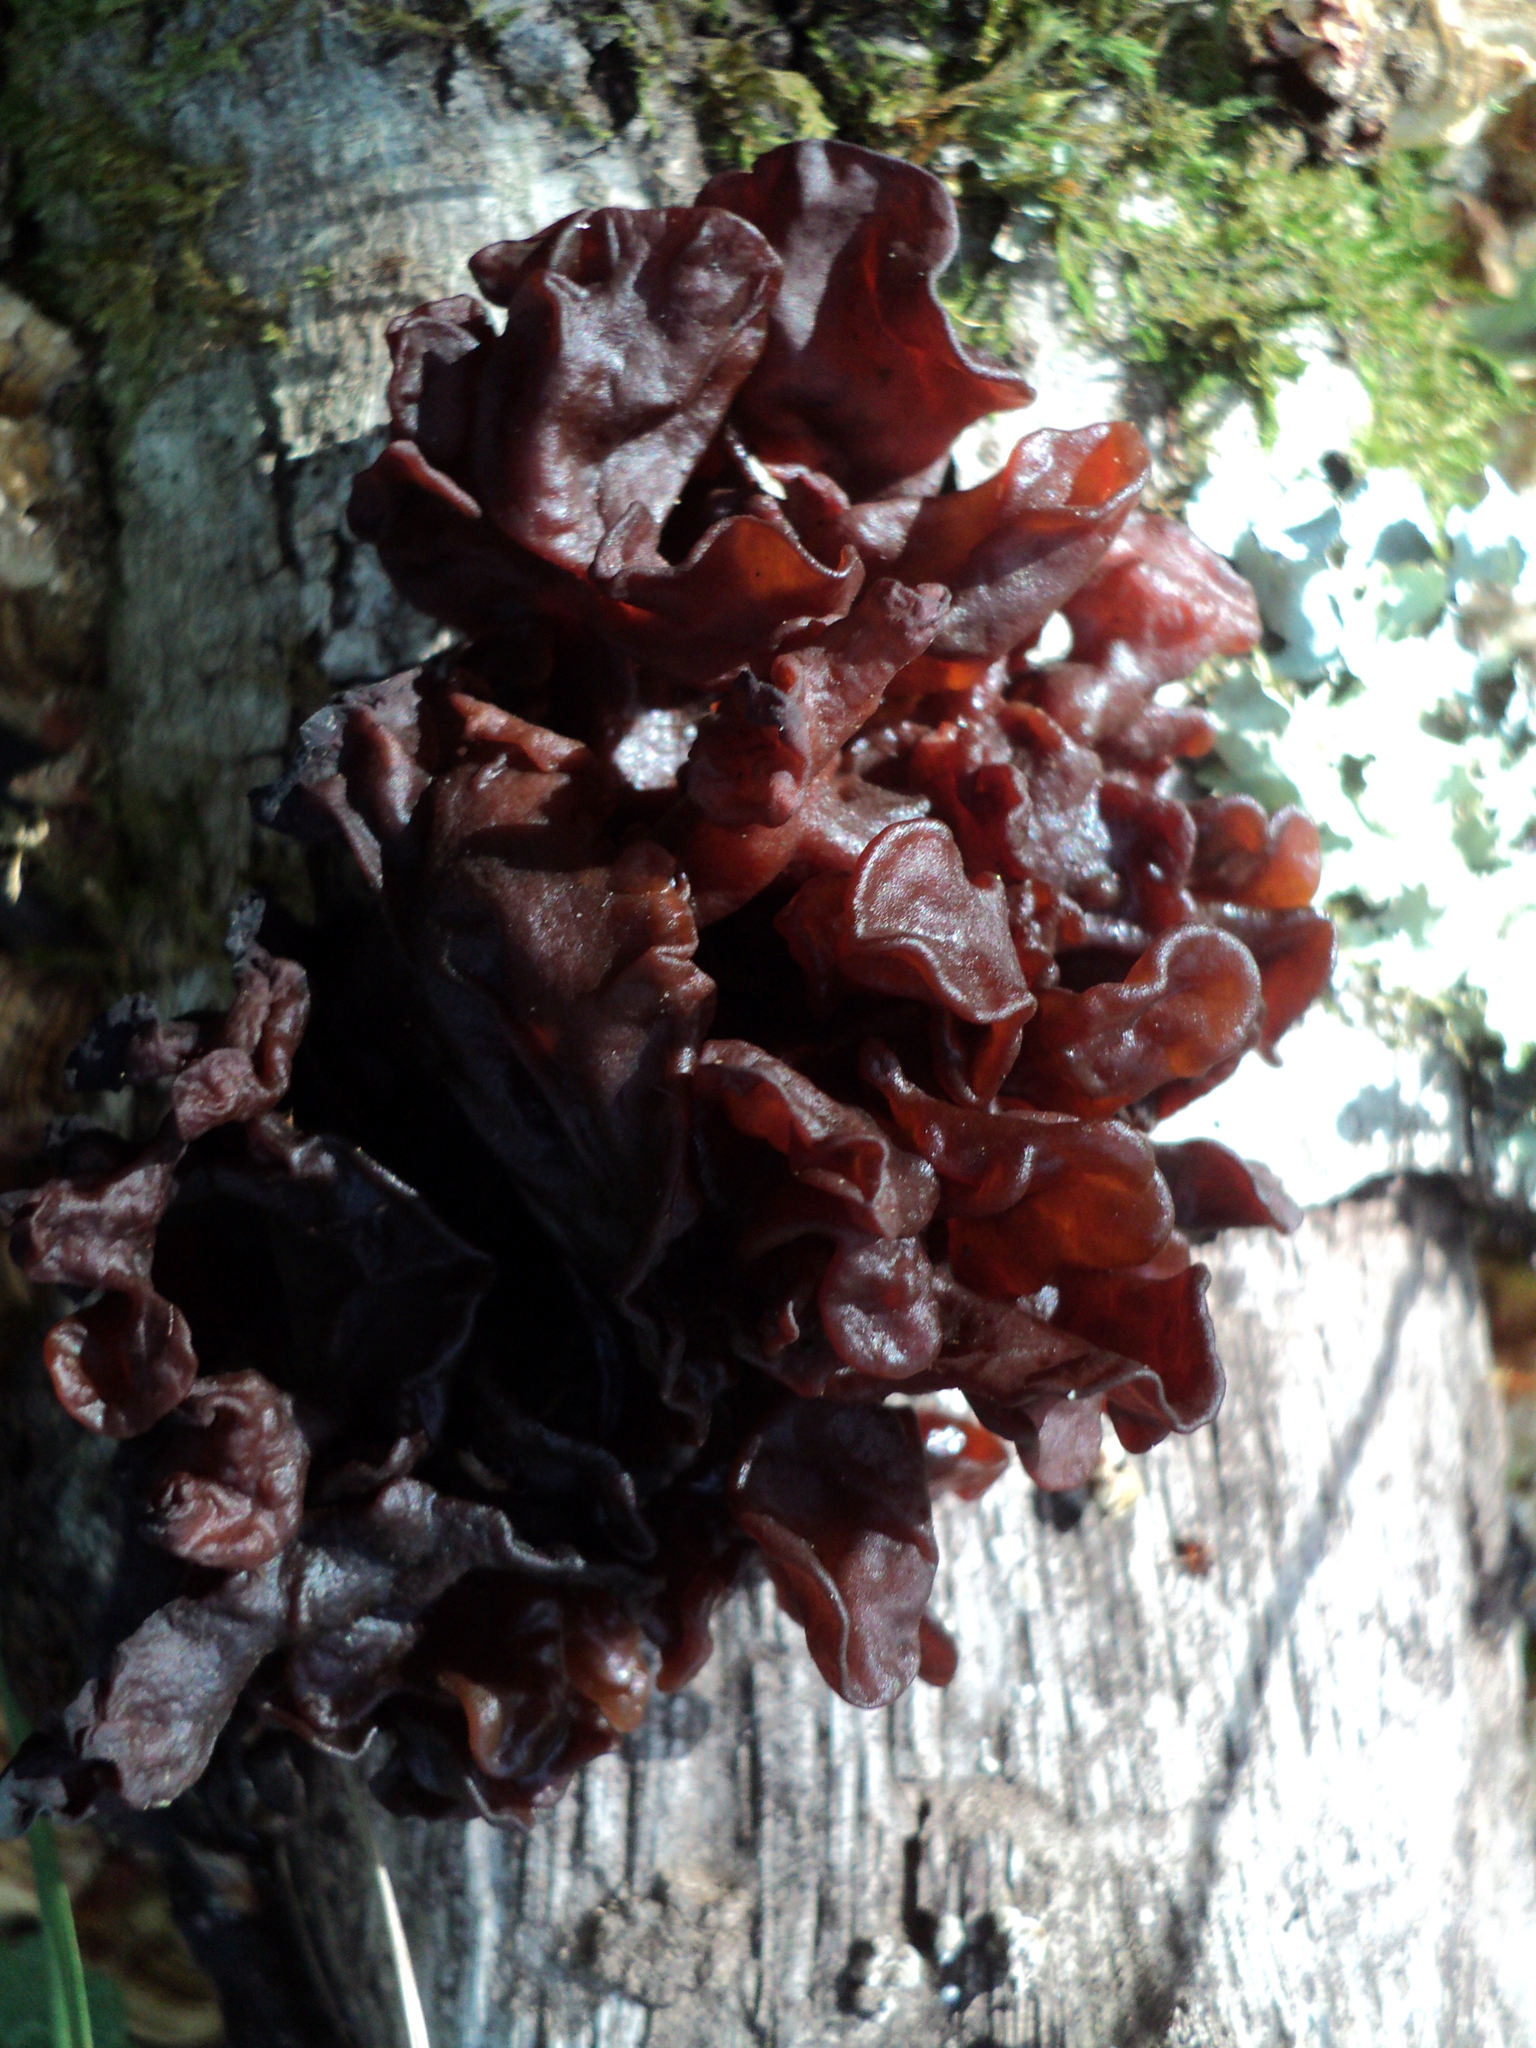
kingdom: Fungi
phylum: Basidiomycota
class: Tremellomycetes
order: Tremellales
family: Tremellaceae
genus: Phaeotremella
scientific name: Phaeotremella foliacea
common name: Leafy brain
